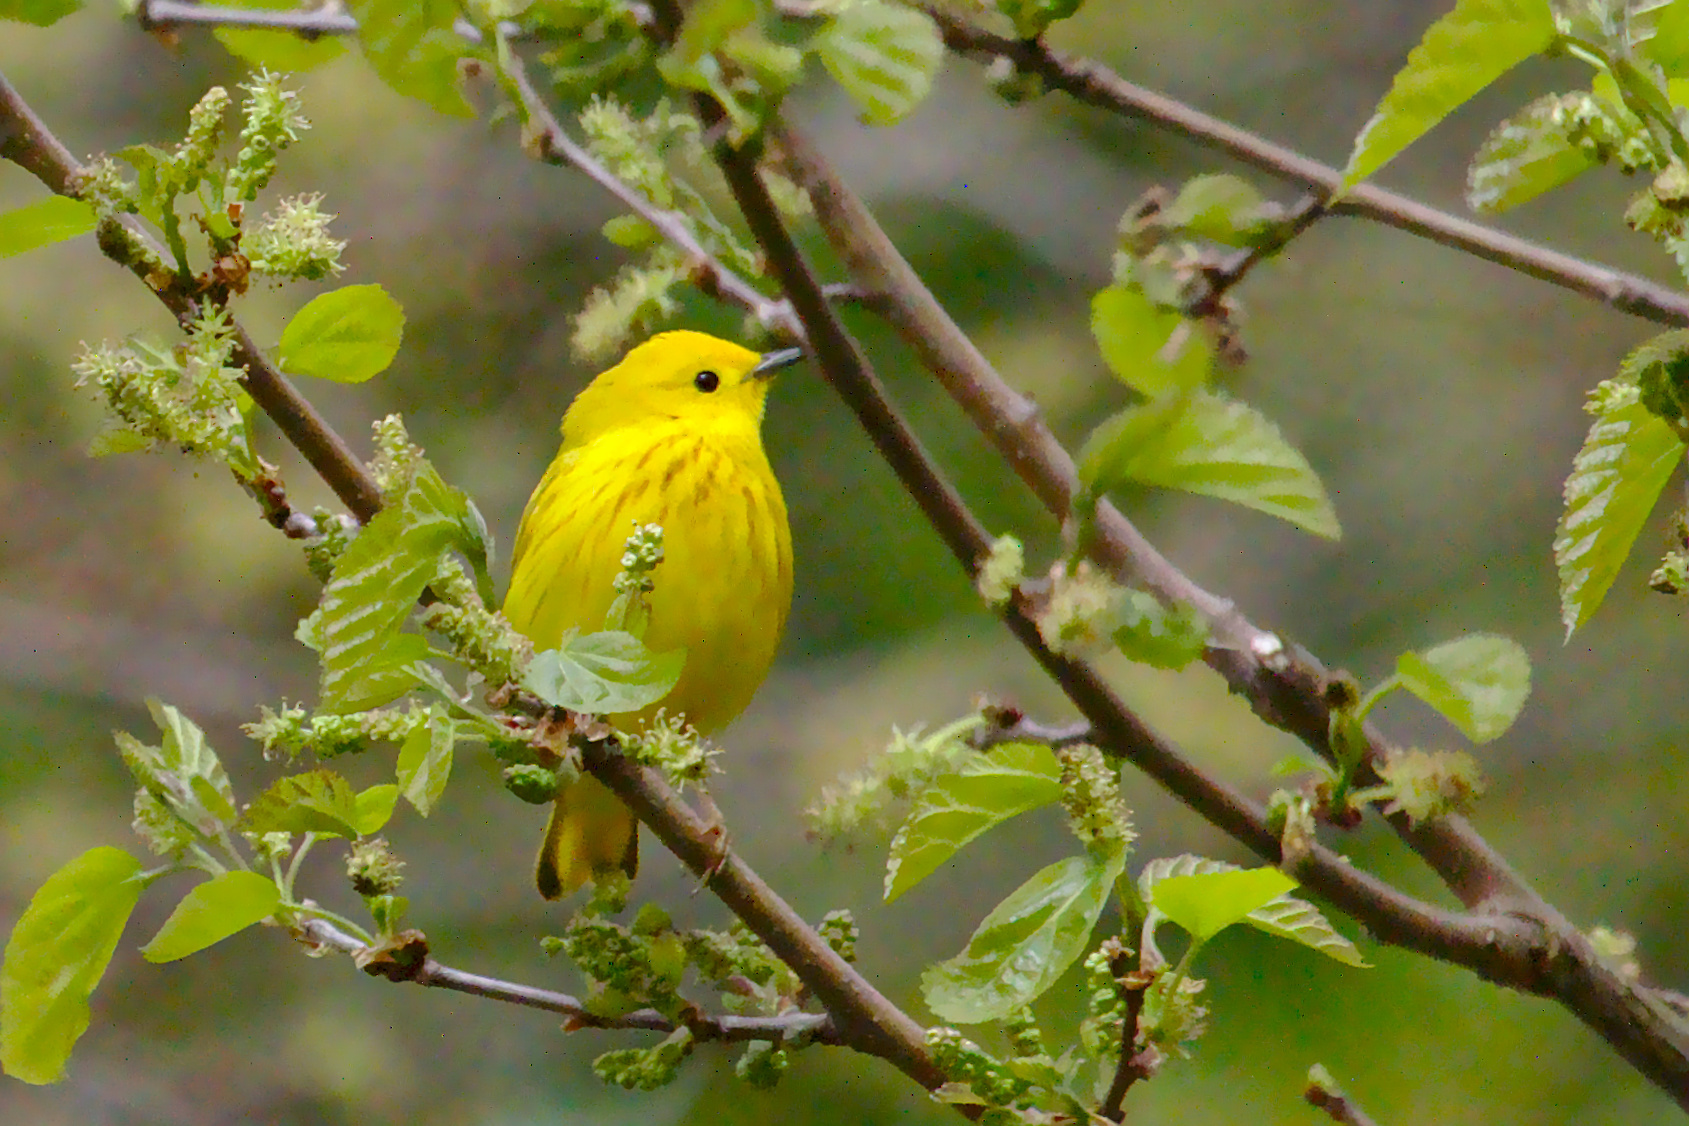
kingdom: Animalia
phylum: Chordata
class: Aves
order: Passeriformes
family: Parulidae
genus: Setophaga
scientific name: Setophaga petechia
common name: Yellow warbler
